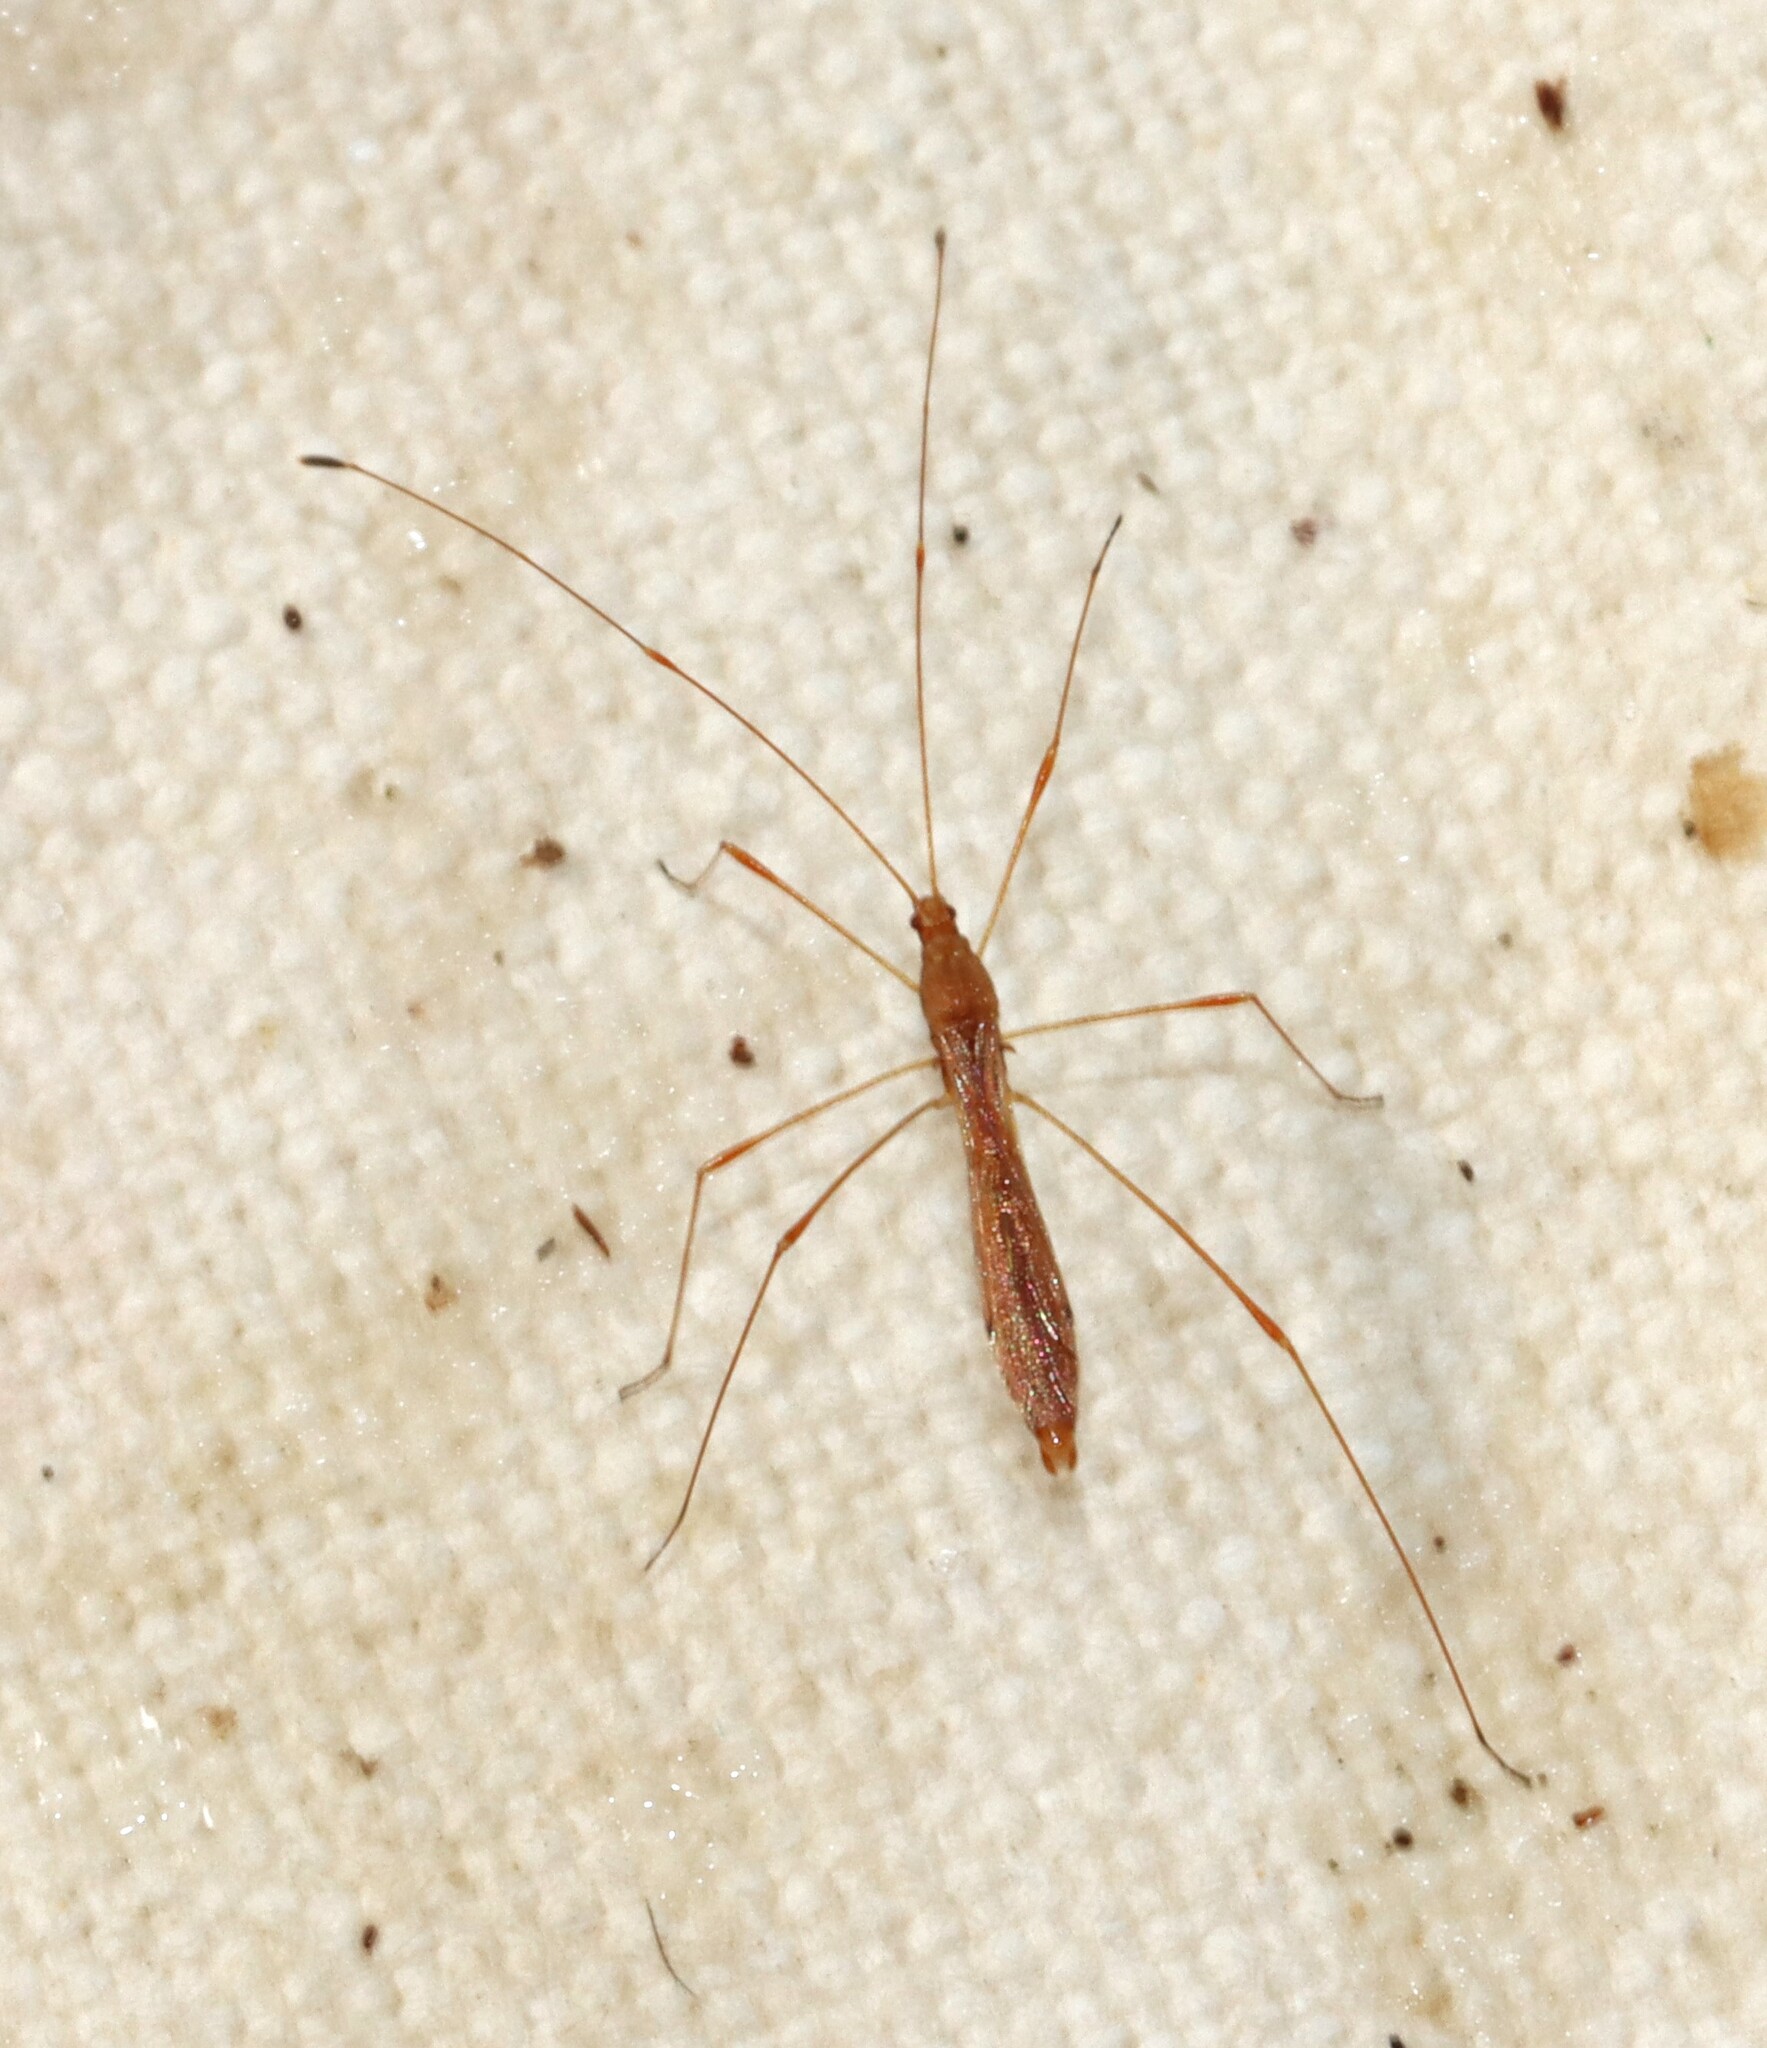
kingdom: Animalia
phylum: Arthropoda
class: Insecta
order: Hemiptera
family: Berytidae
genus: Jalysus
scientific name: Jalysus
